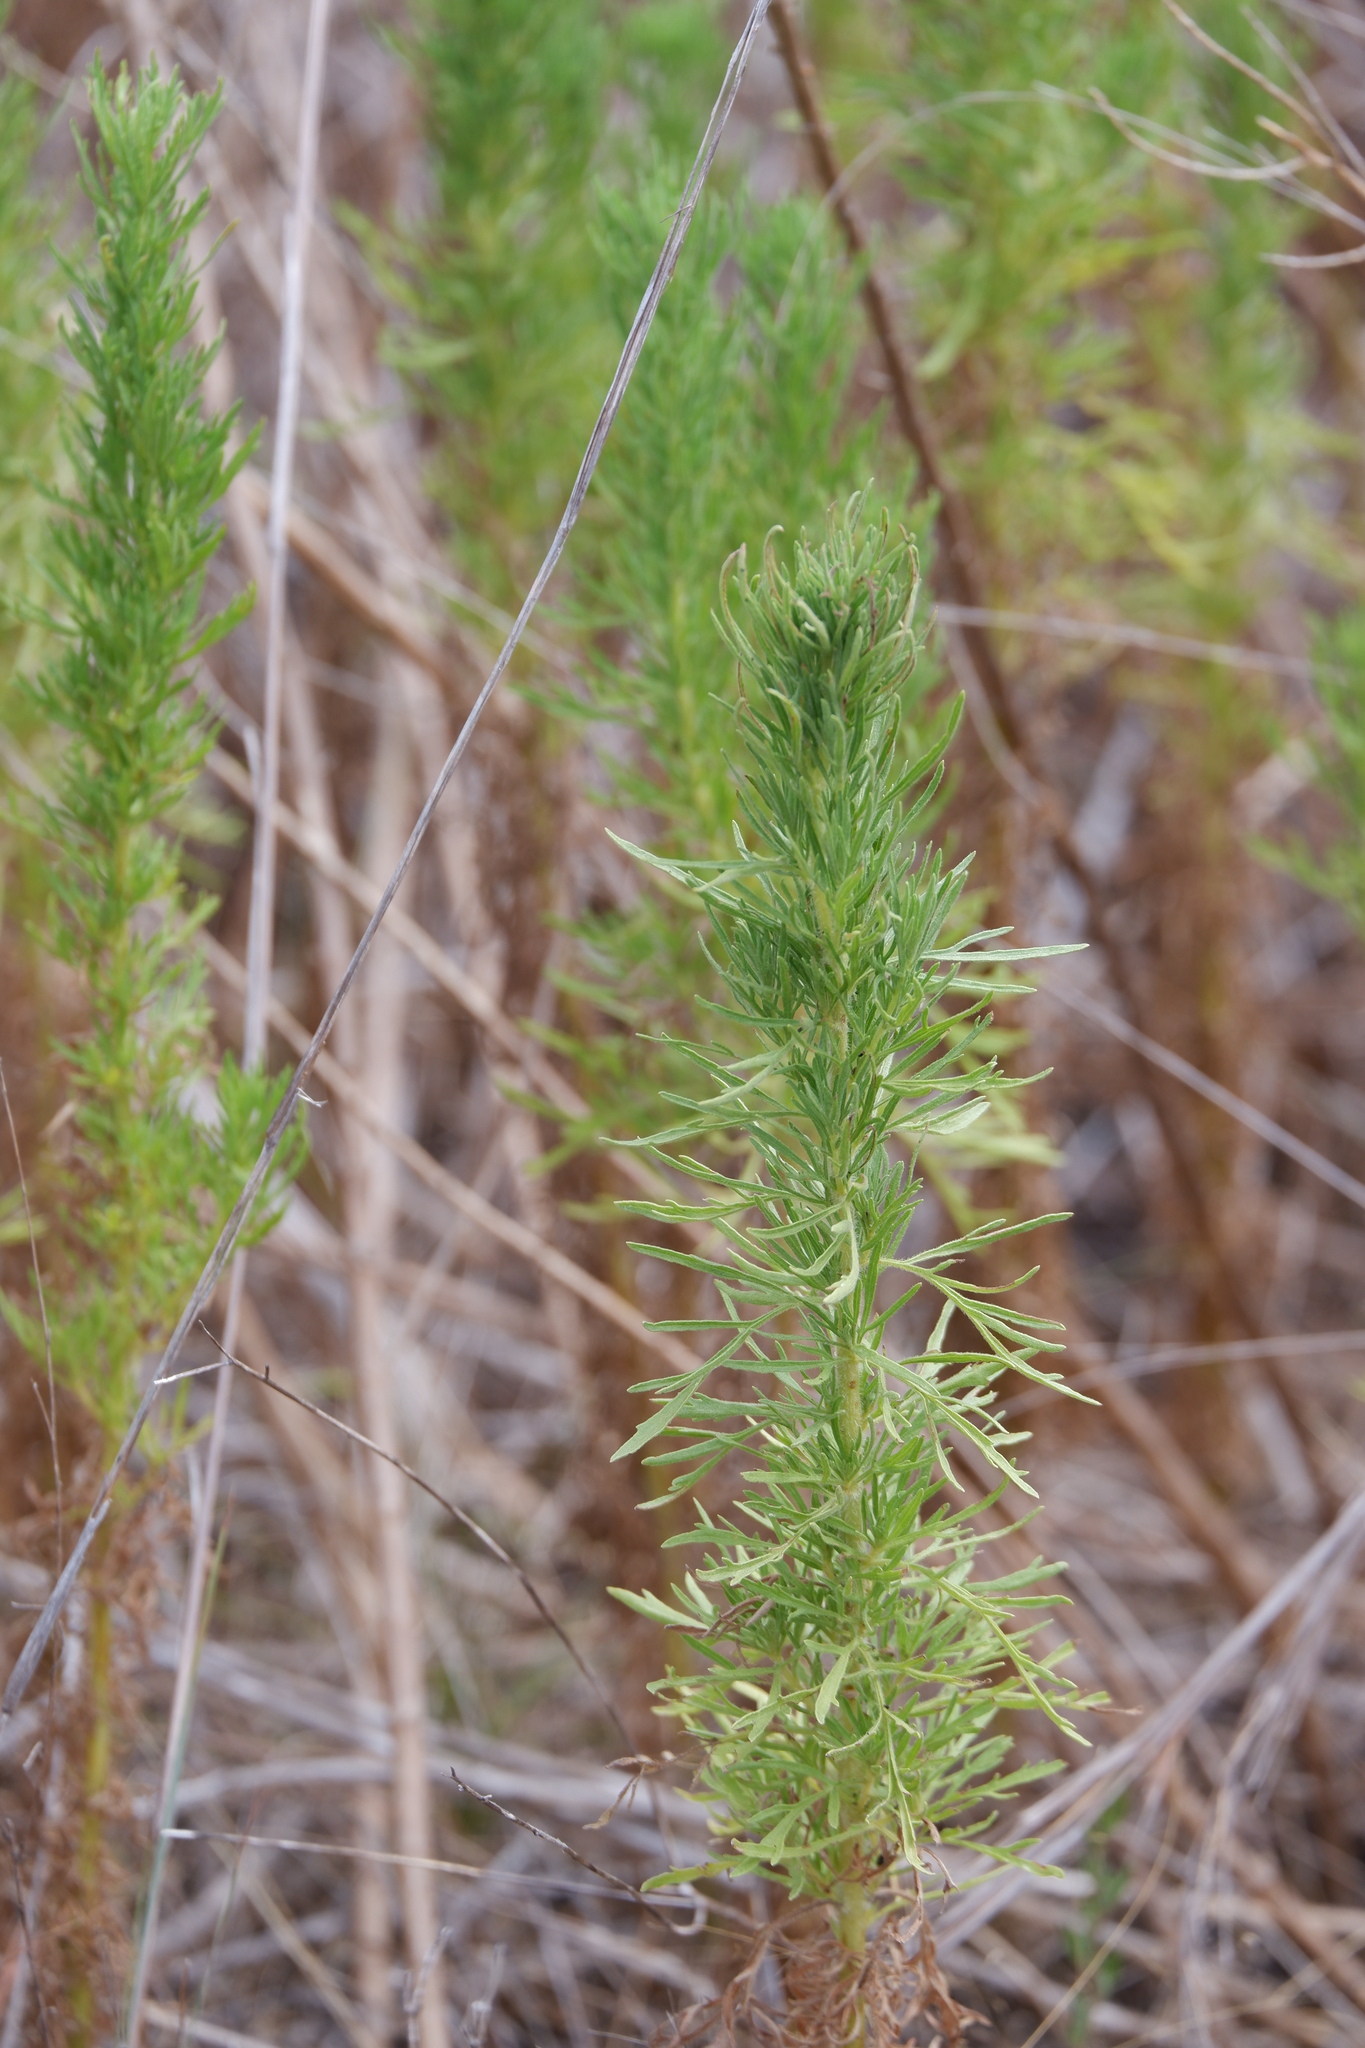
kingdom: Plantae
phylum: Tracheophyta
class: Magnoliopsida
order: Asterales
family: Asteraceae
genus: Eupatorium
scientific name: Eupatorium compositifolium
